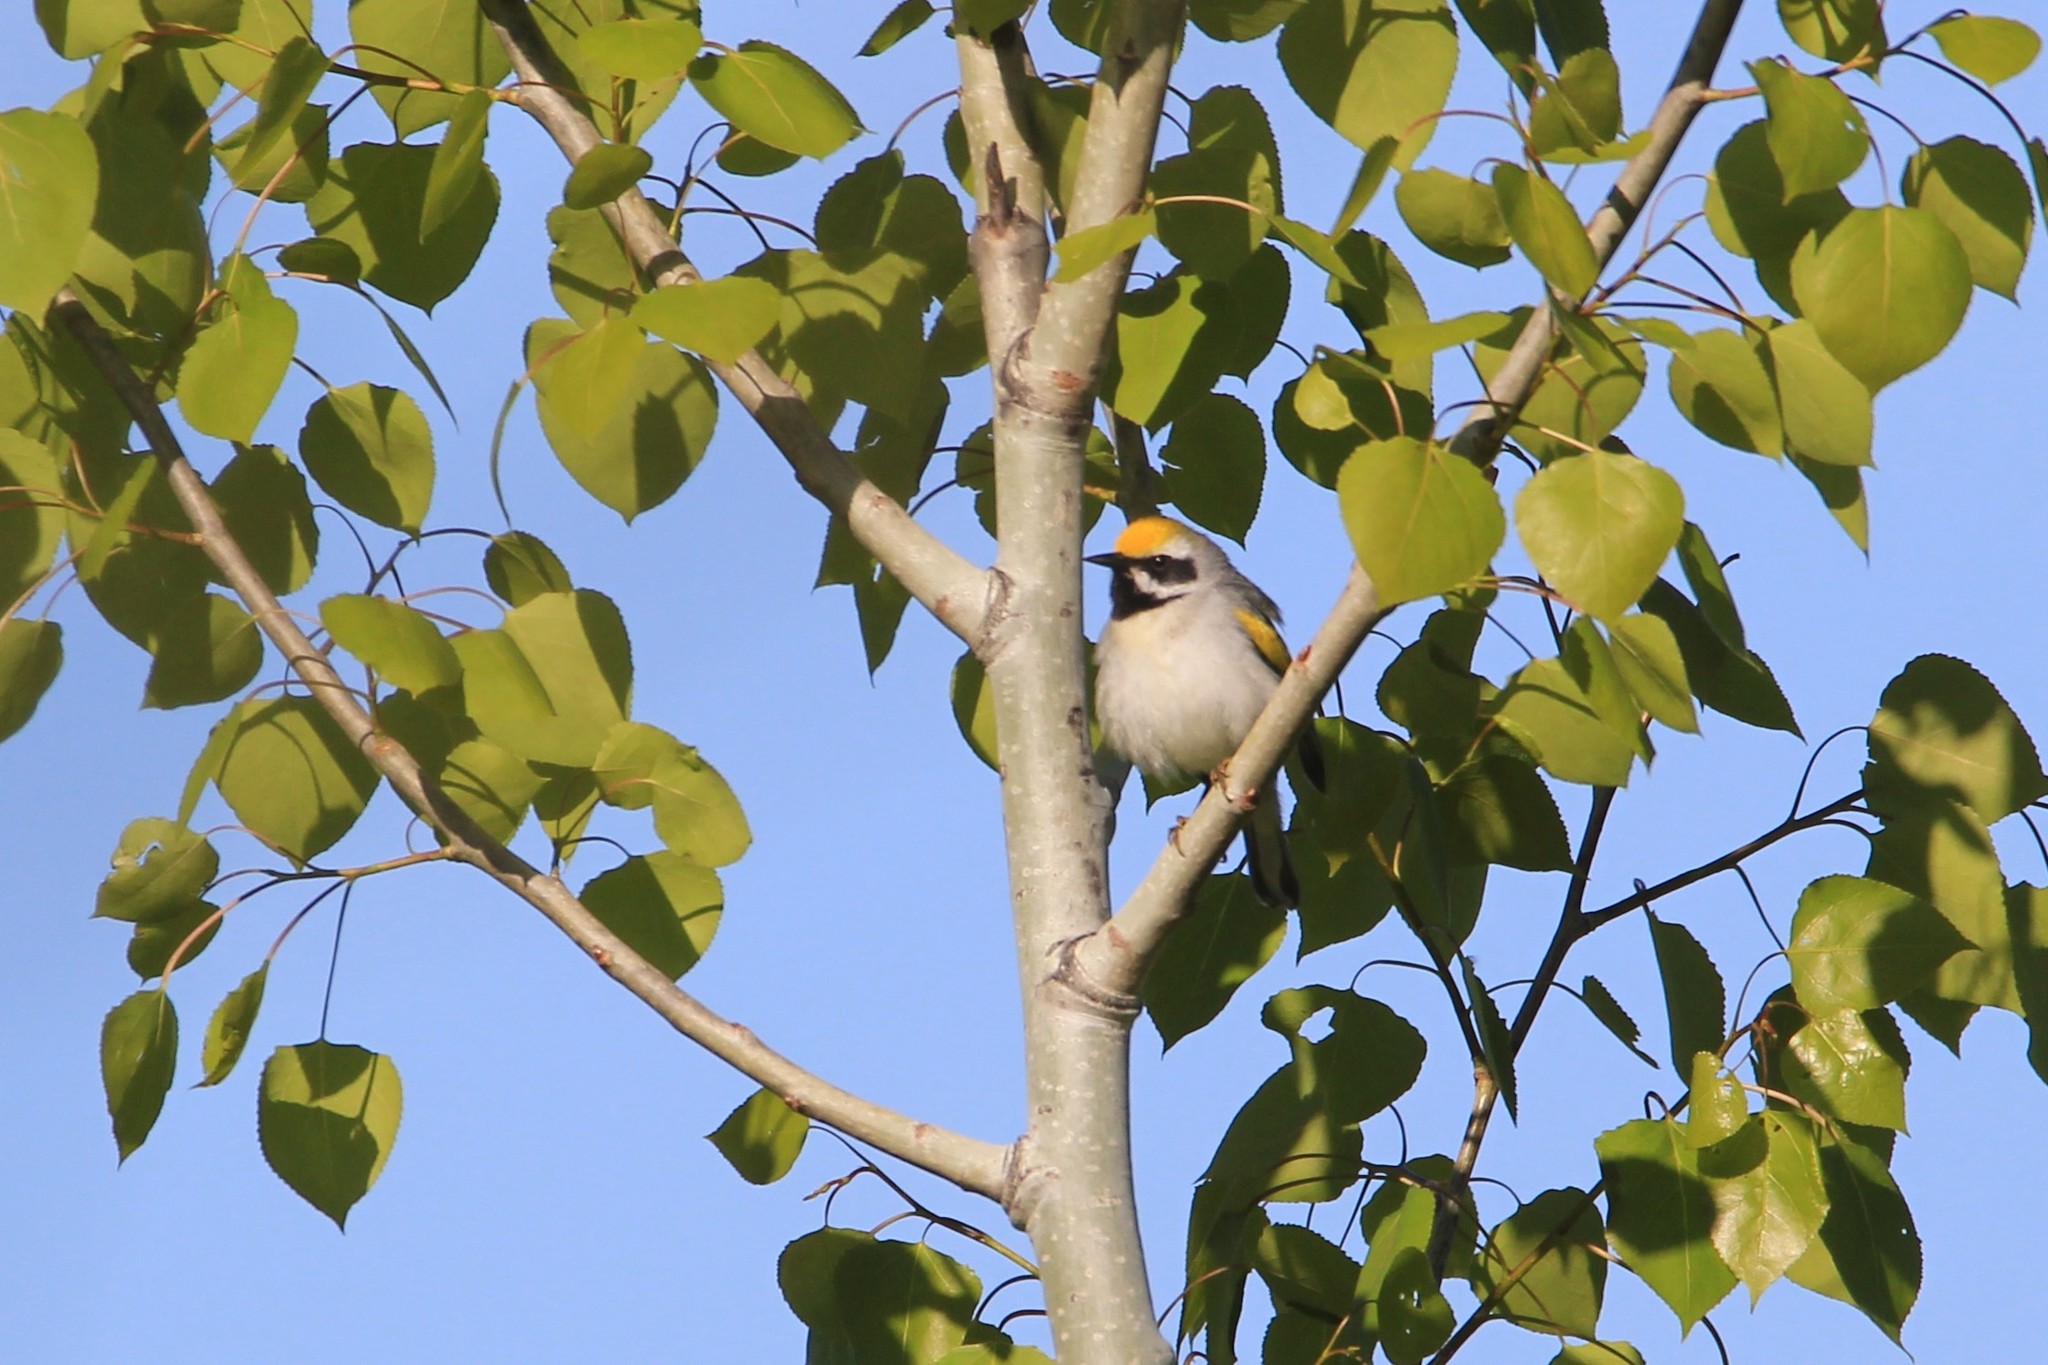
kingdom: Animalia
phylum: Chordata
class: Aves
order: Passeriformes
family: Parulidae
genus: Vermivora
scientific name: Vermivora chrysoptera
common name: Golden-winged warbler
